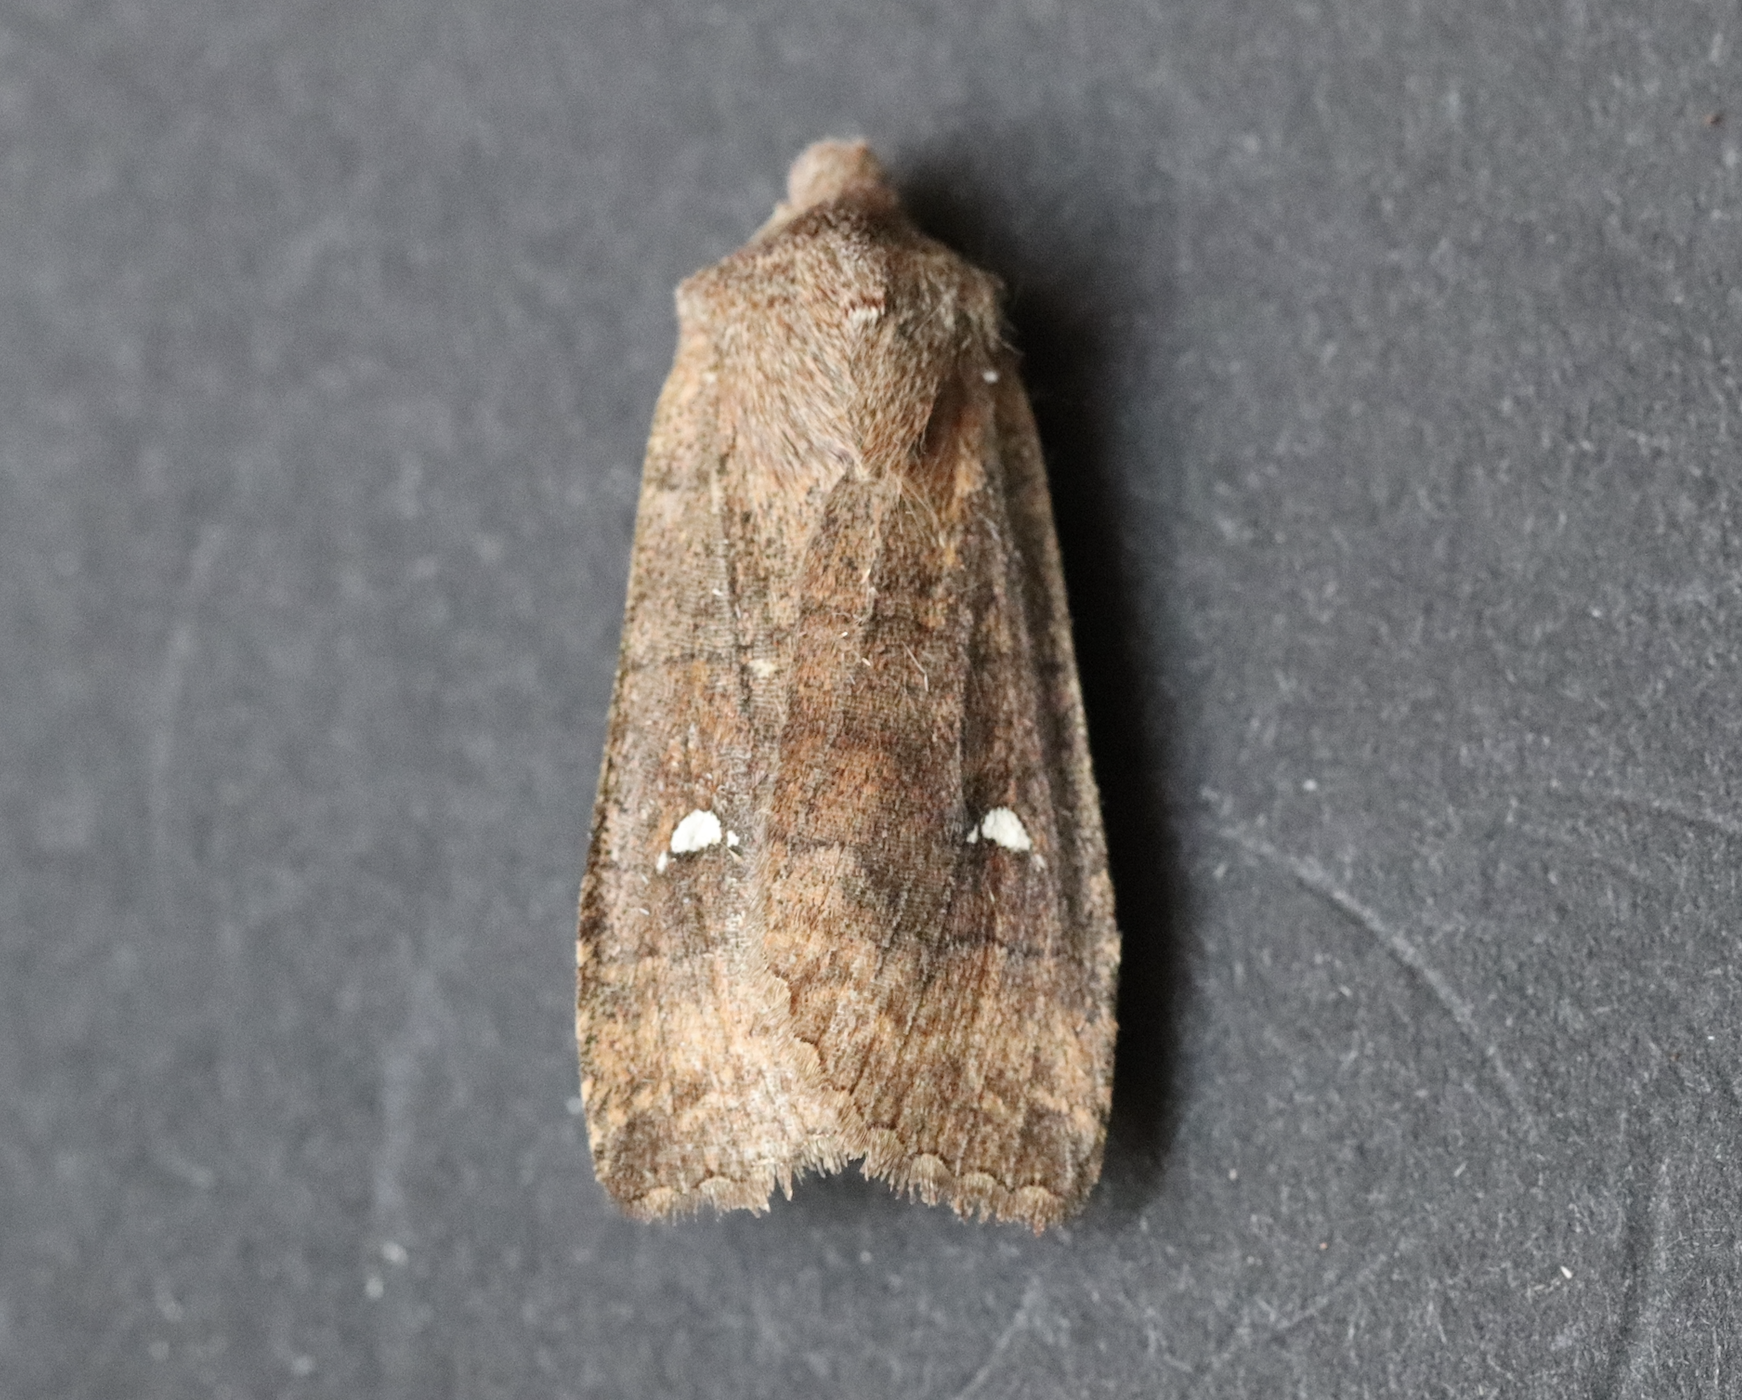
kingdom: Animalia
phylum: Arthropoda
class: Insecta
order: Lepidoptera
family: Noctuidae
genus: Eupsilia
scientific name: Eupsilia transversa
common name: Satellite
